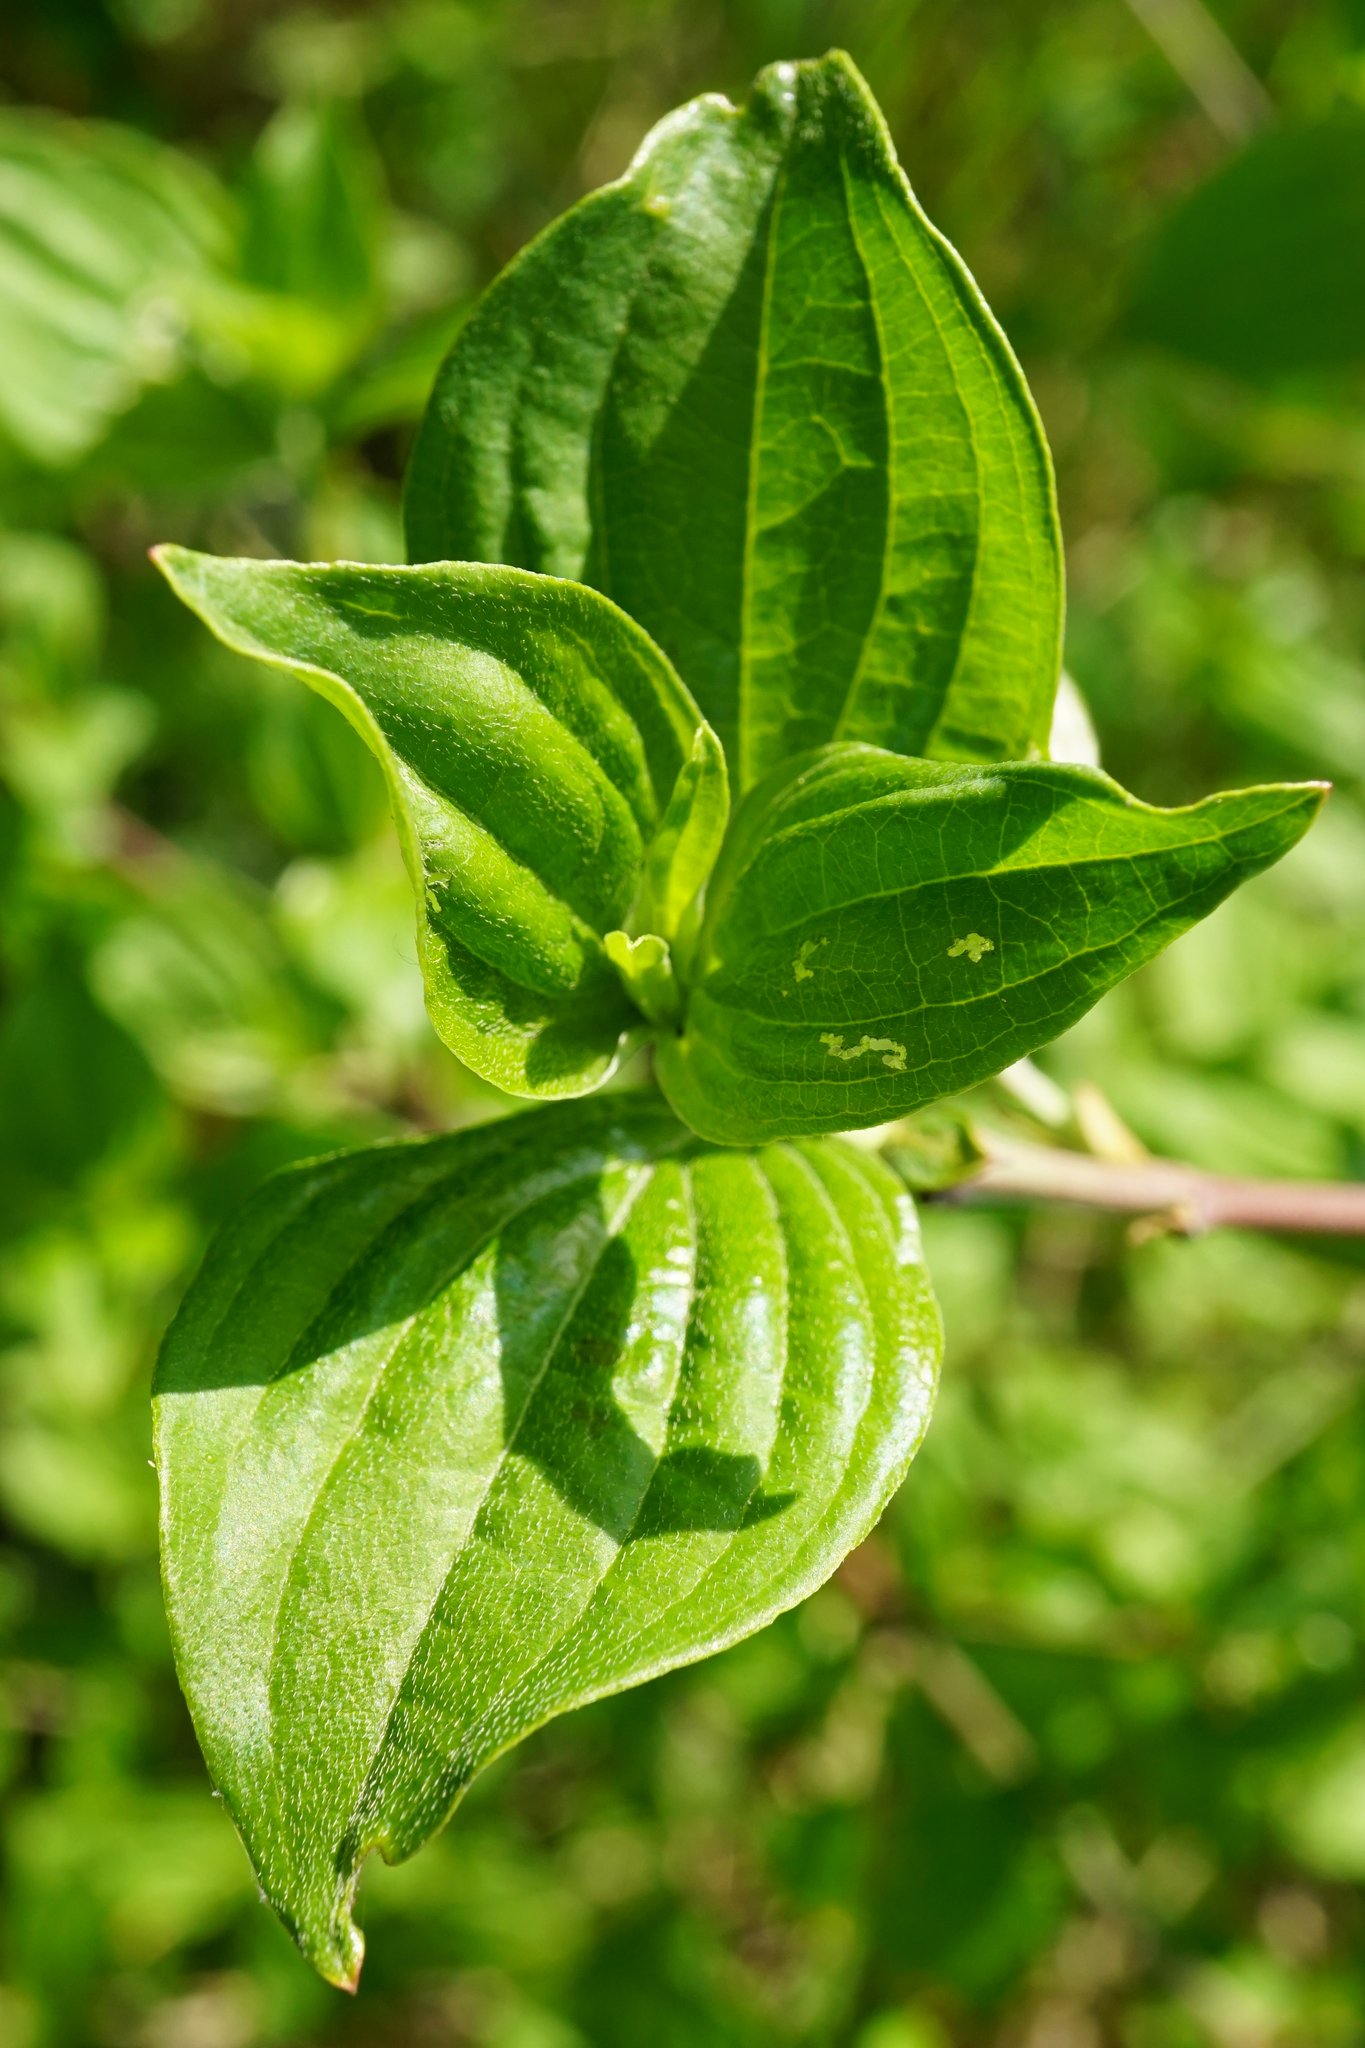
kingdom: Plantae
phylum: Tracheophyta
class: Magnoliopsida
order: Cornales
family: Cornaceae
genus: Cornus
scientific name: Cornus sanguinea
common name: Dogwood
